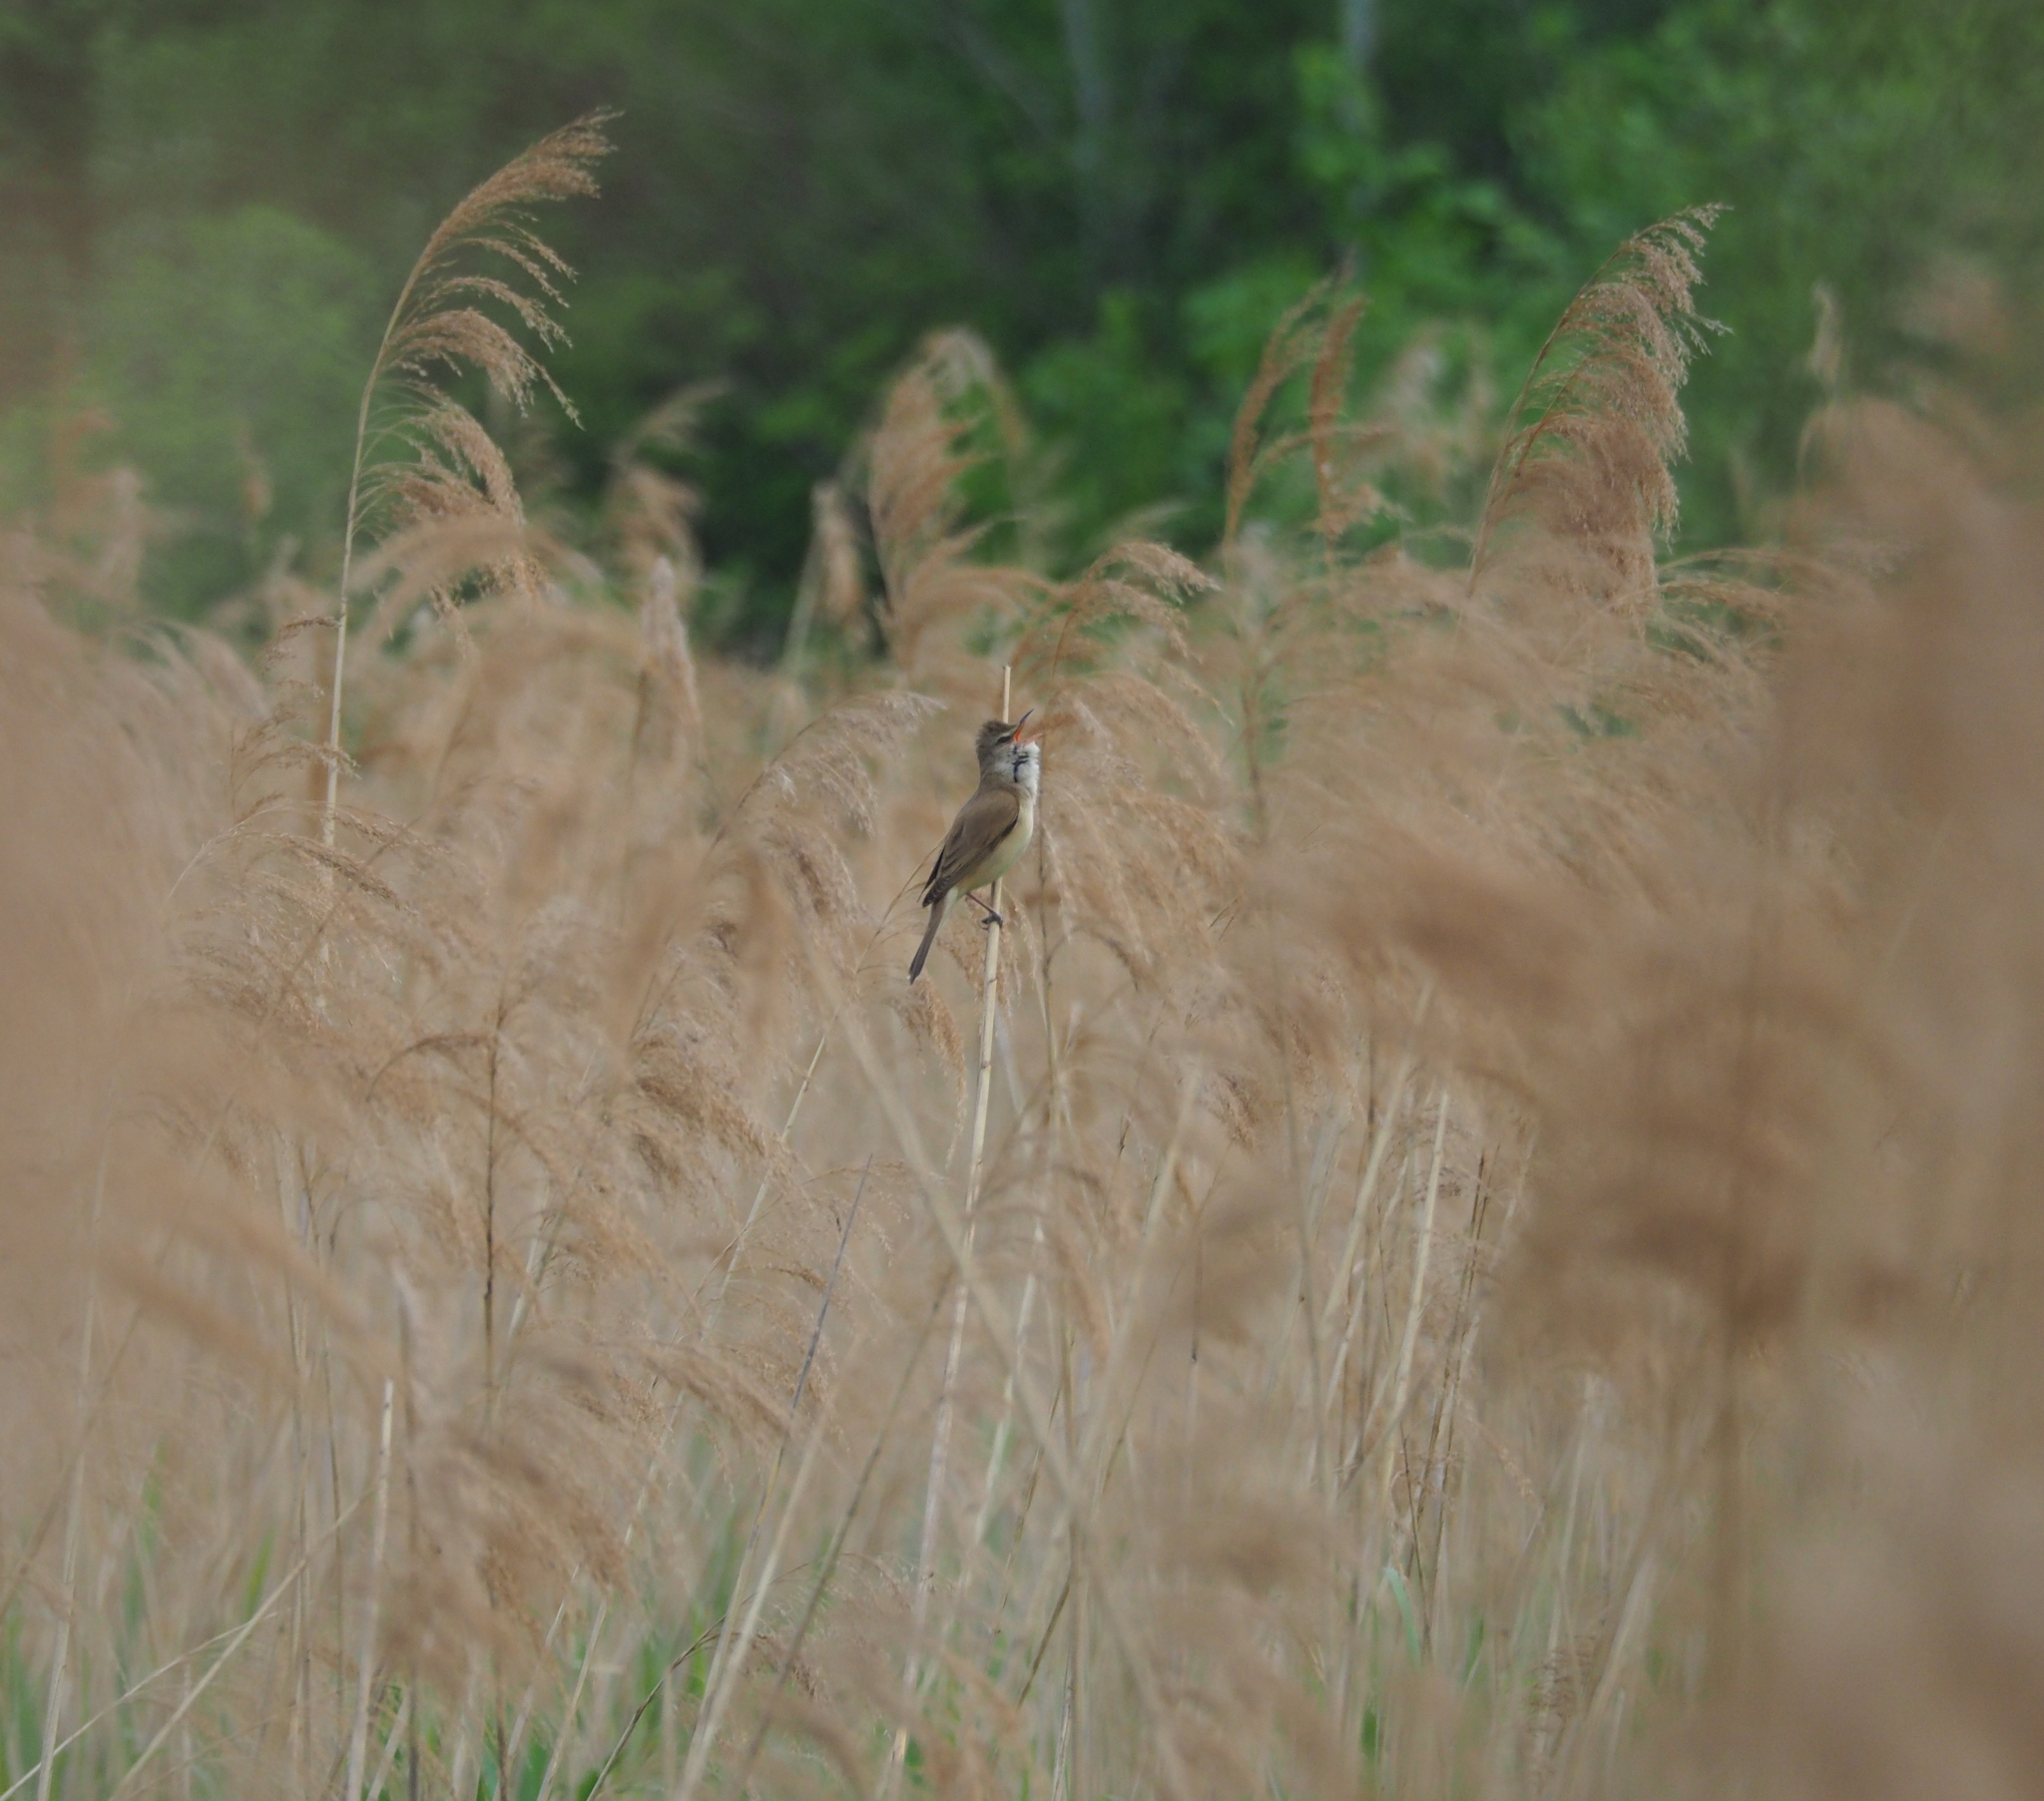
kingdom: Animalia
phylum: Chordata
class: Aves
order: Passeriformes
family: Acrocephalidae
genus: Acrocephalus
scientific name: Acrocephalus arundinaceus
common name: Great reed warbler
